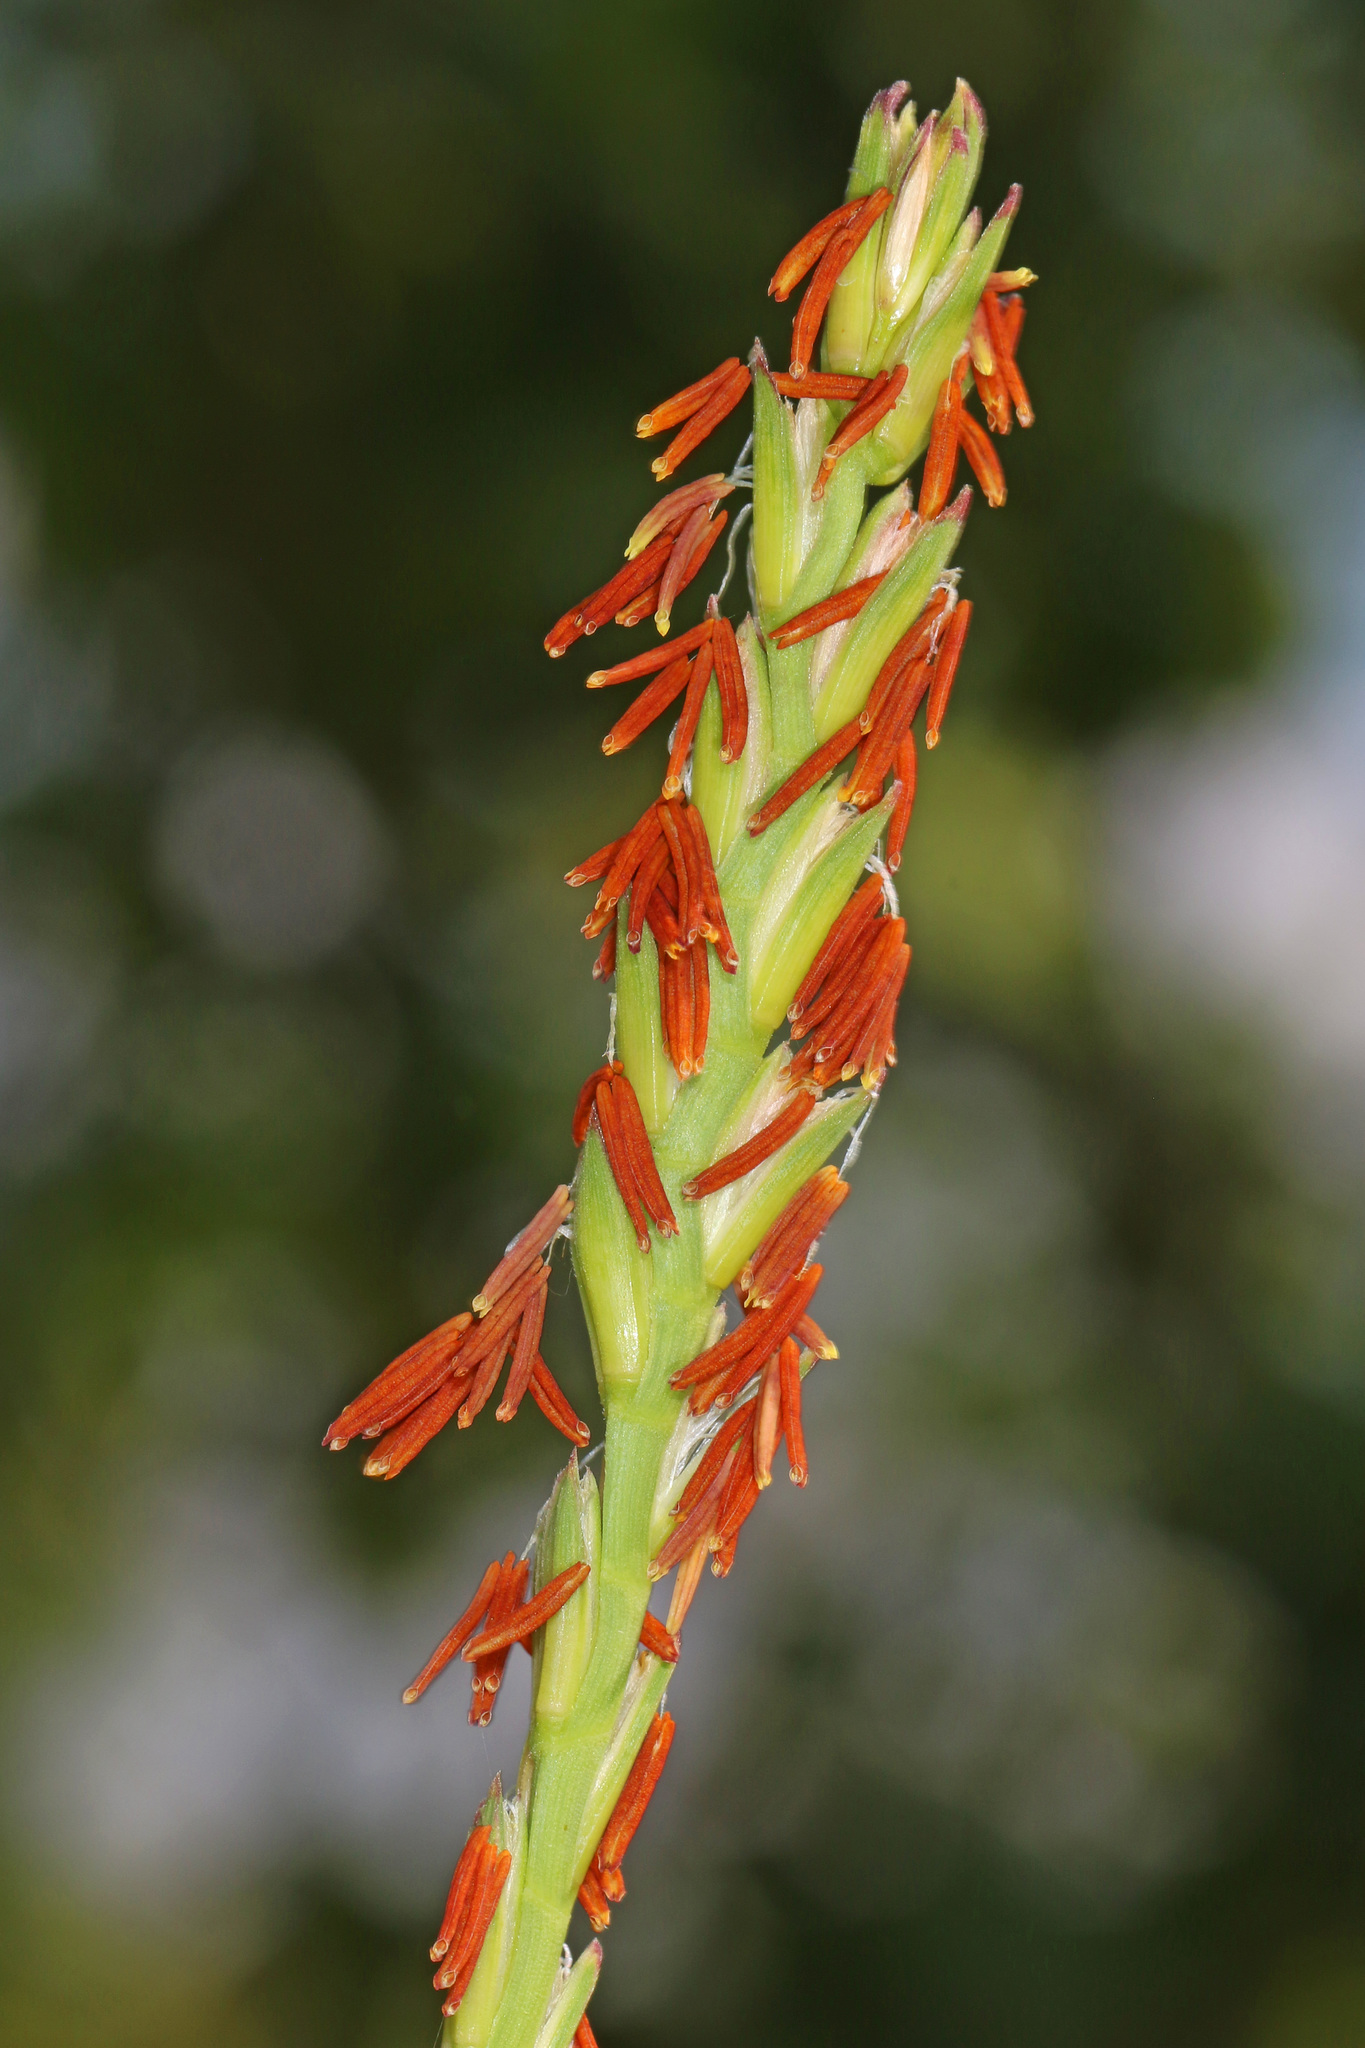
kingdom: Plantae
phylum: Tracheophyta
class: Liliopsida
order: Poales
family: Poaceae
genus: Tripsacum
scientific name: Tripsacum dactyloides
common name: Buffalo-grass
